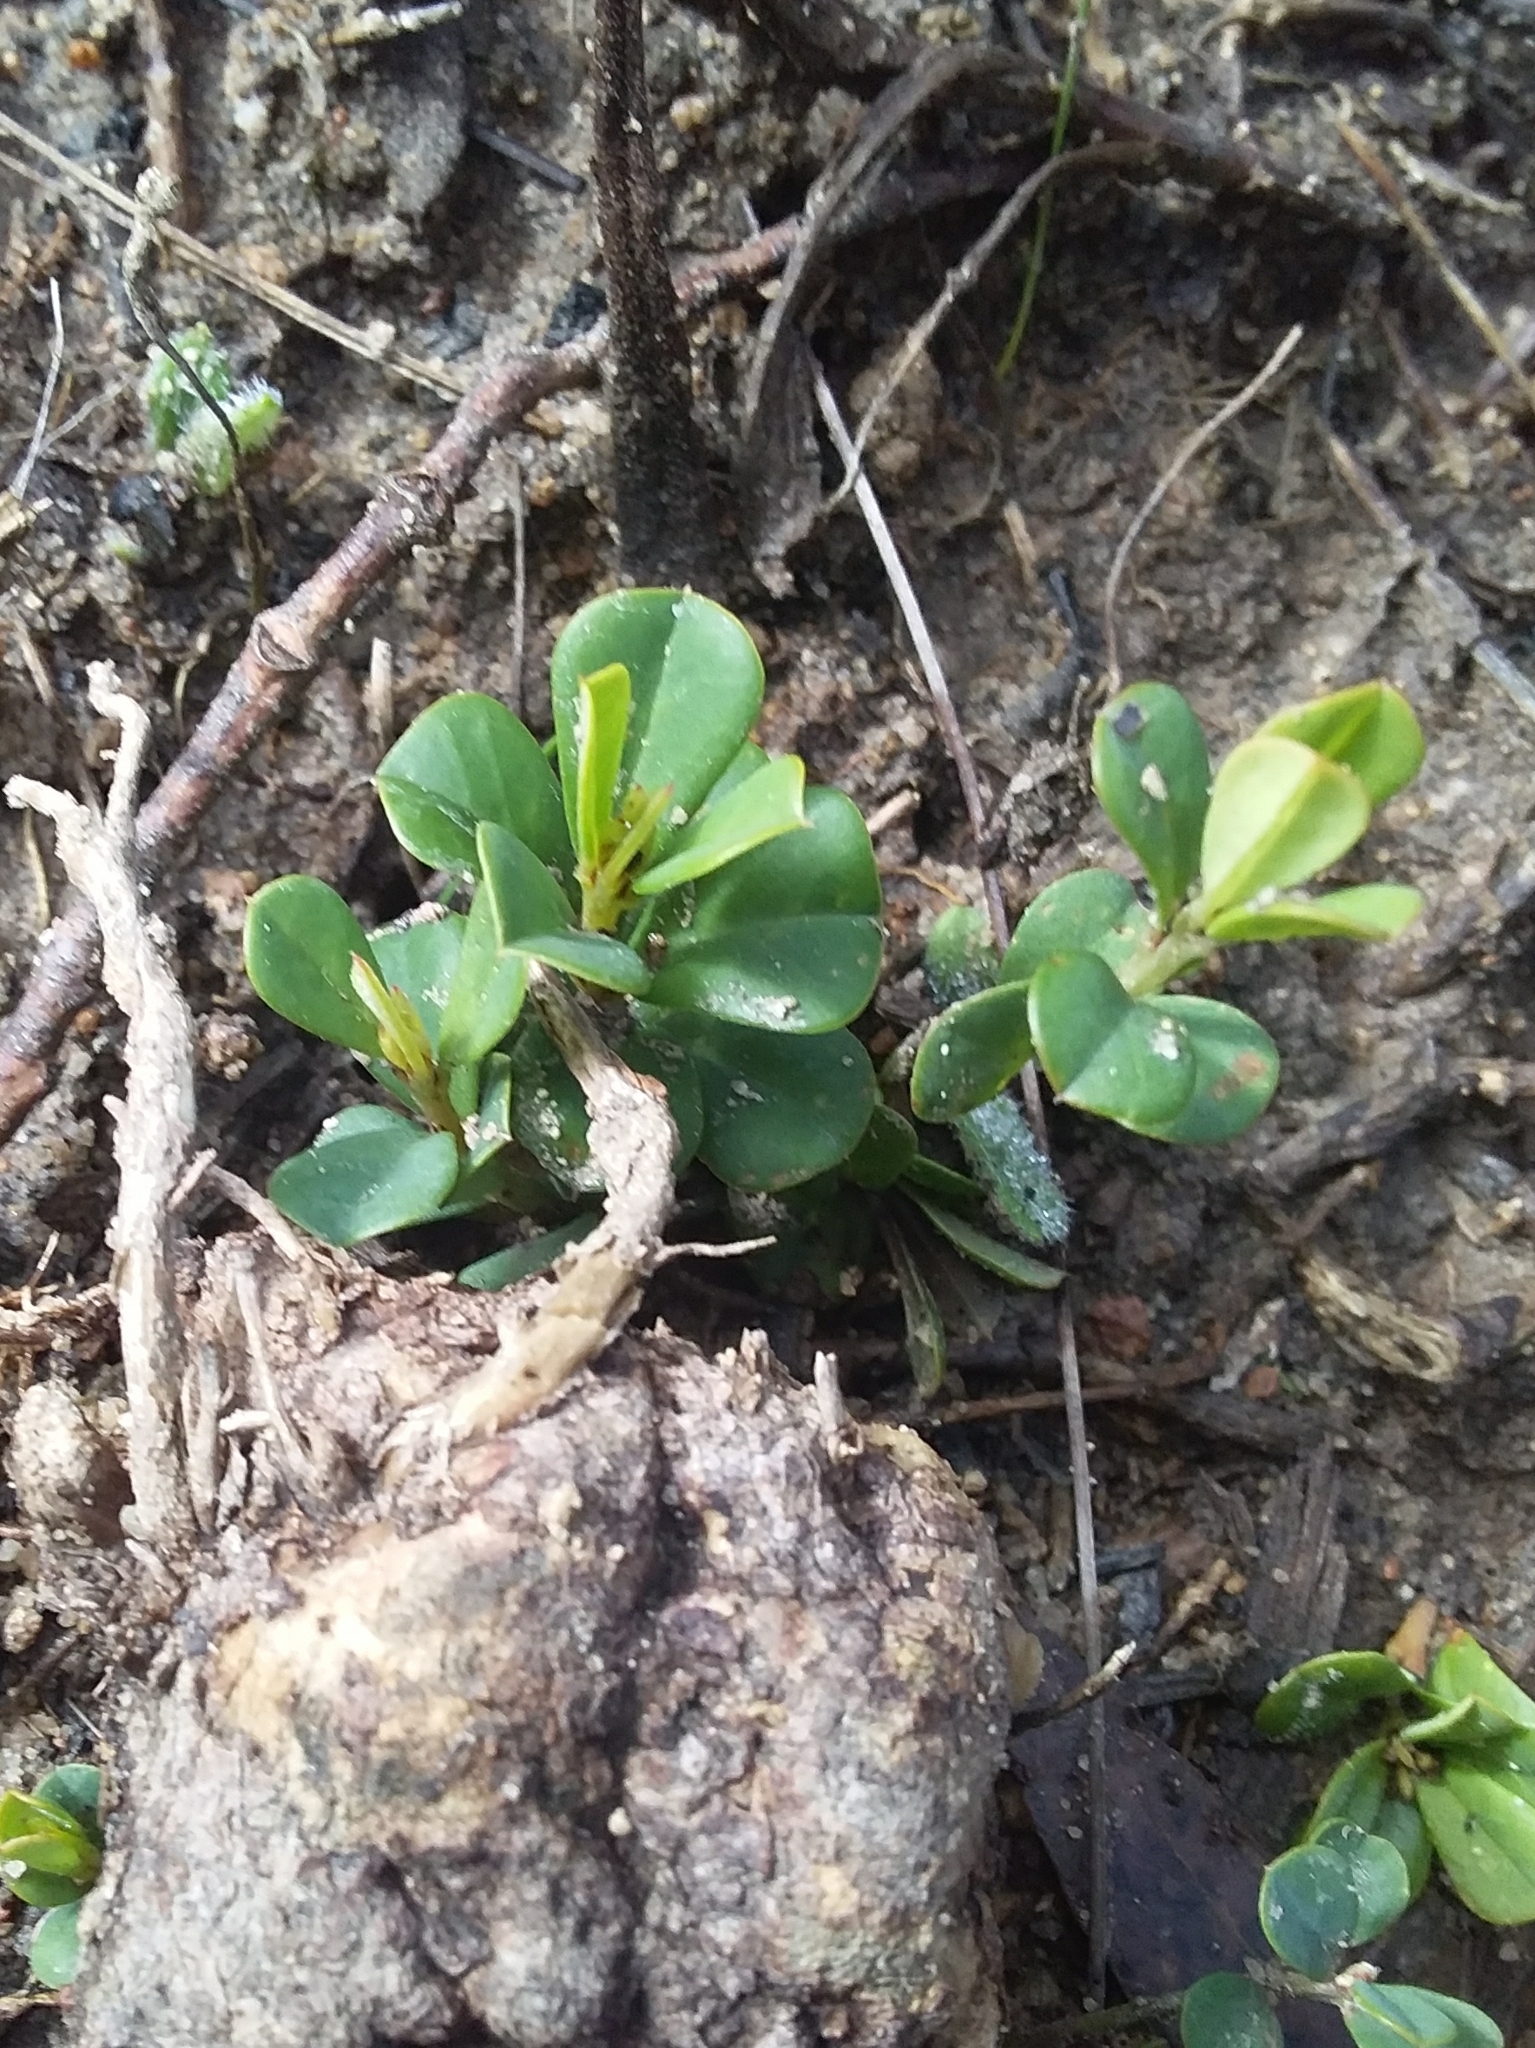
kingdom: Plantae
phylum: Tracheophyta
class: Magnoliopsida
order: Fabales
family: Fabaceae
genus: Pultenaea
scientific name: Pultenaea daphnoides
